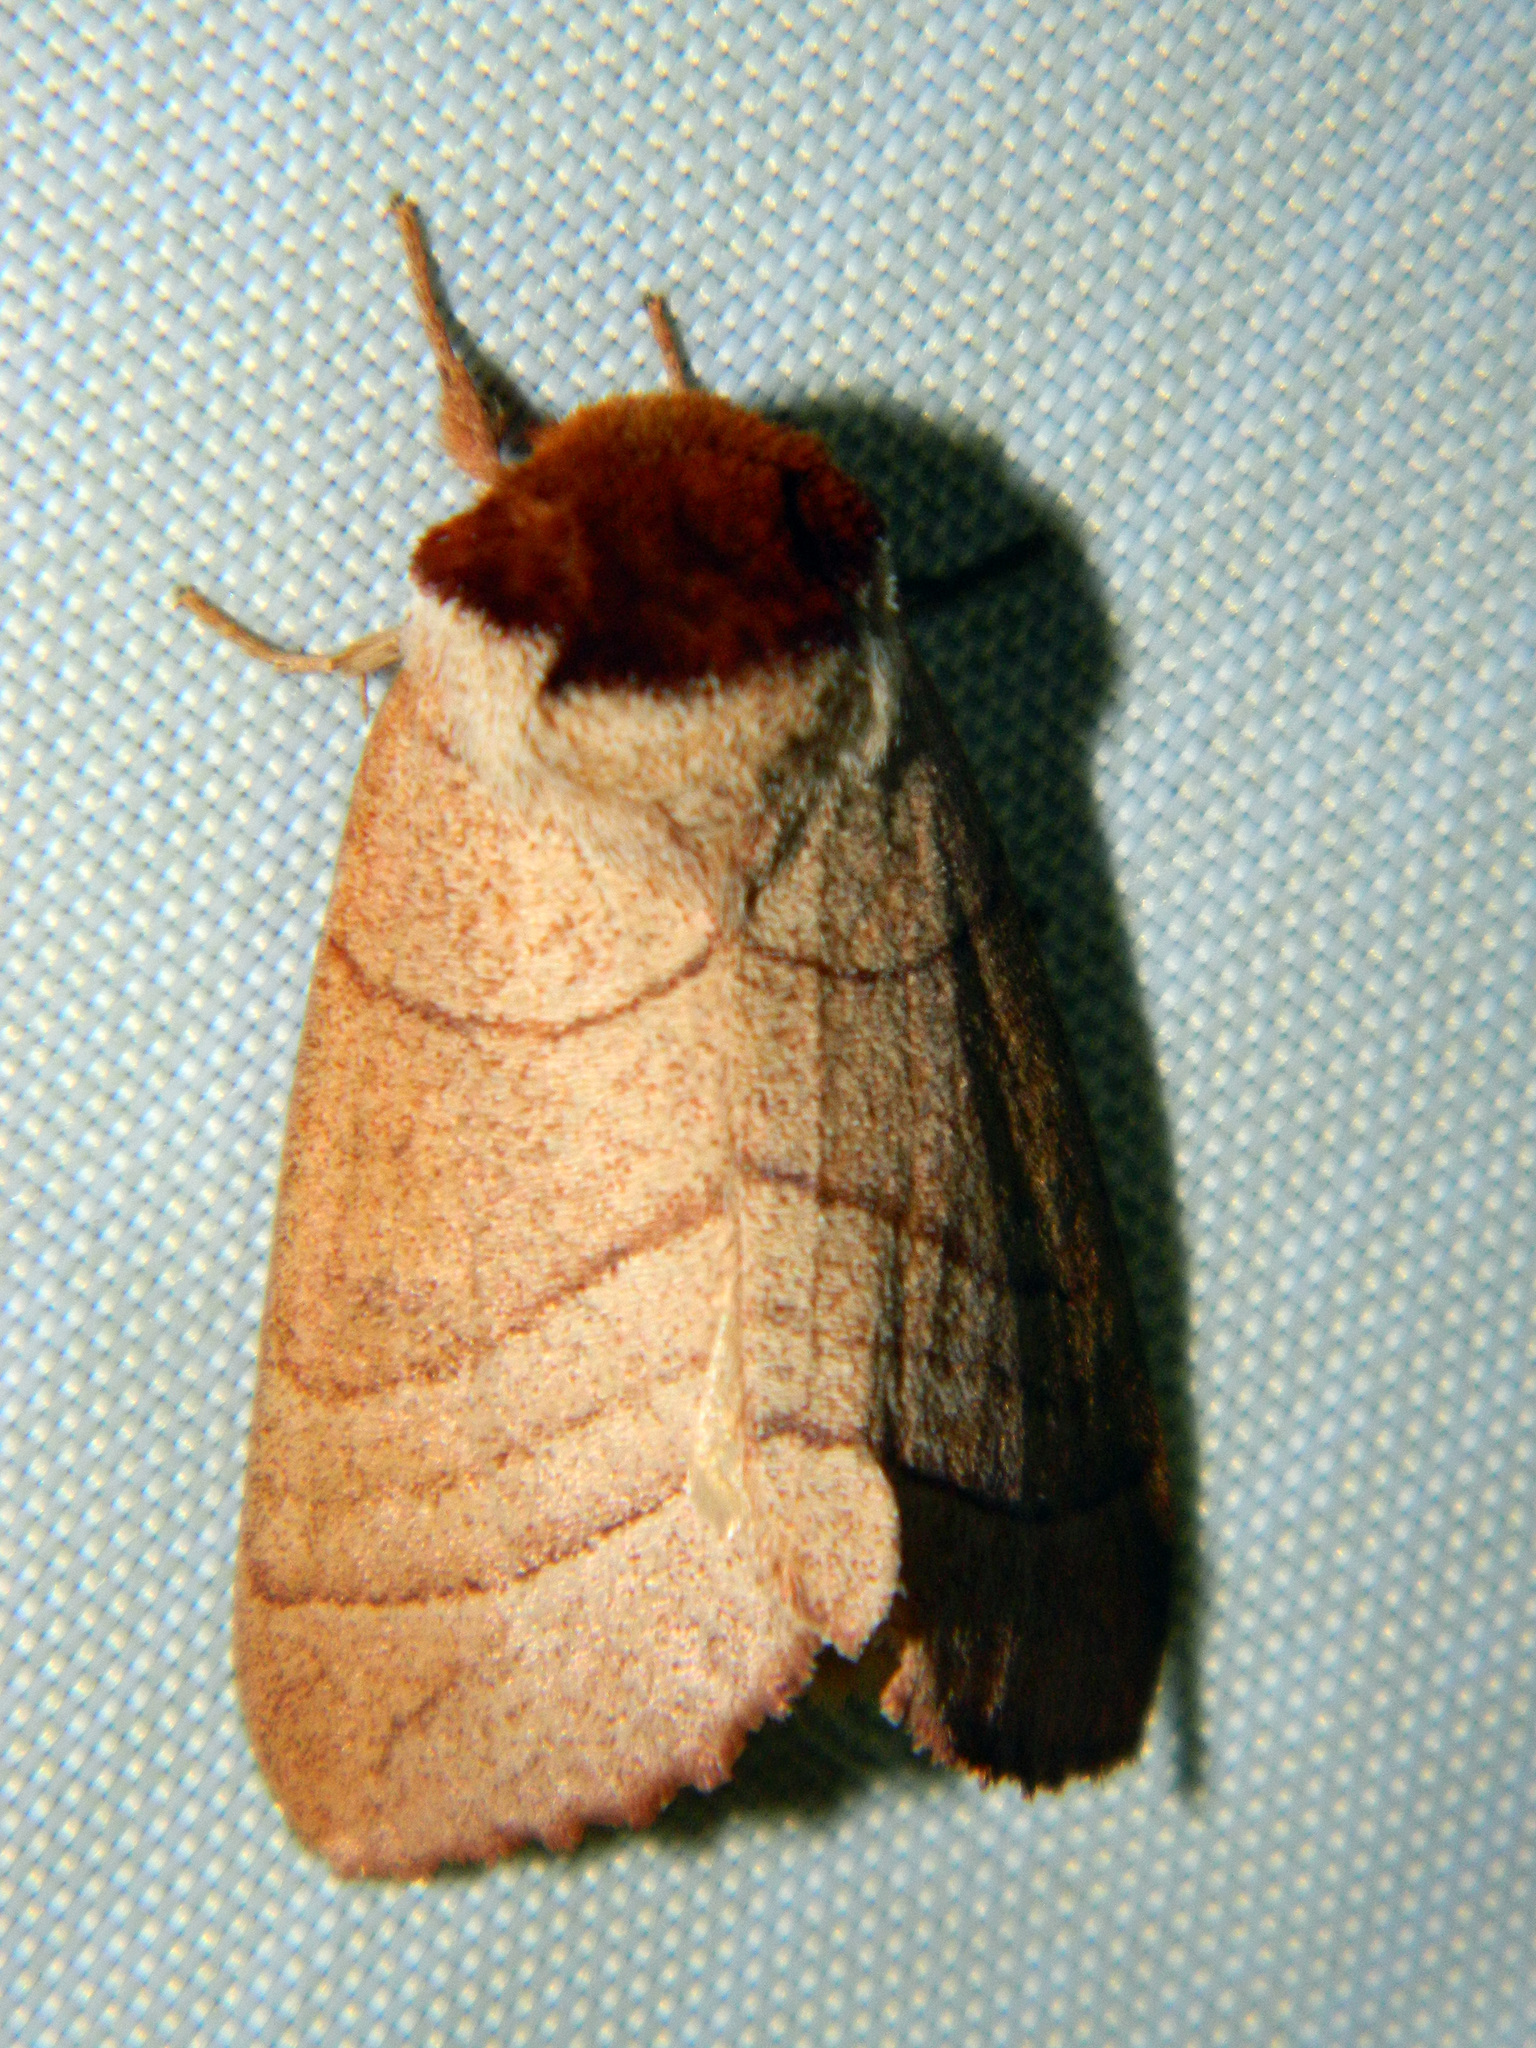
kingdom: Animalia
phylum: Arthropoda
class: Insecta
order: Lepidoptera
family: Notodontidae
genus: Datana
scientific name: Datana ministra
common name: Yellow-necked caterpillar moth
